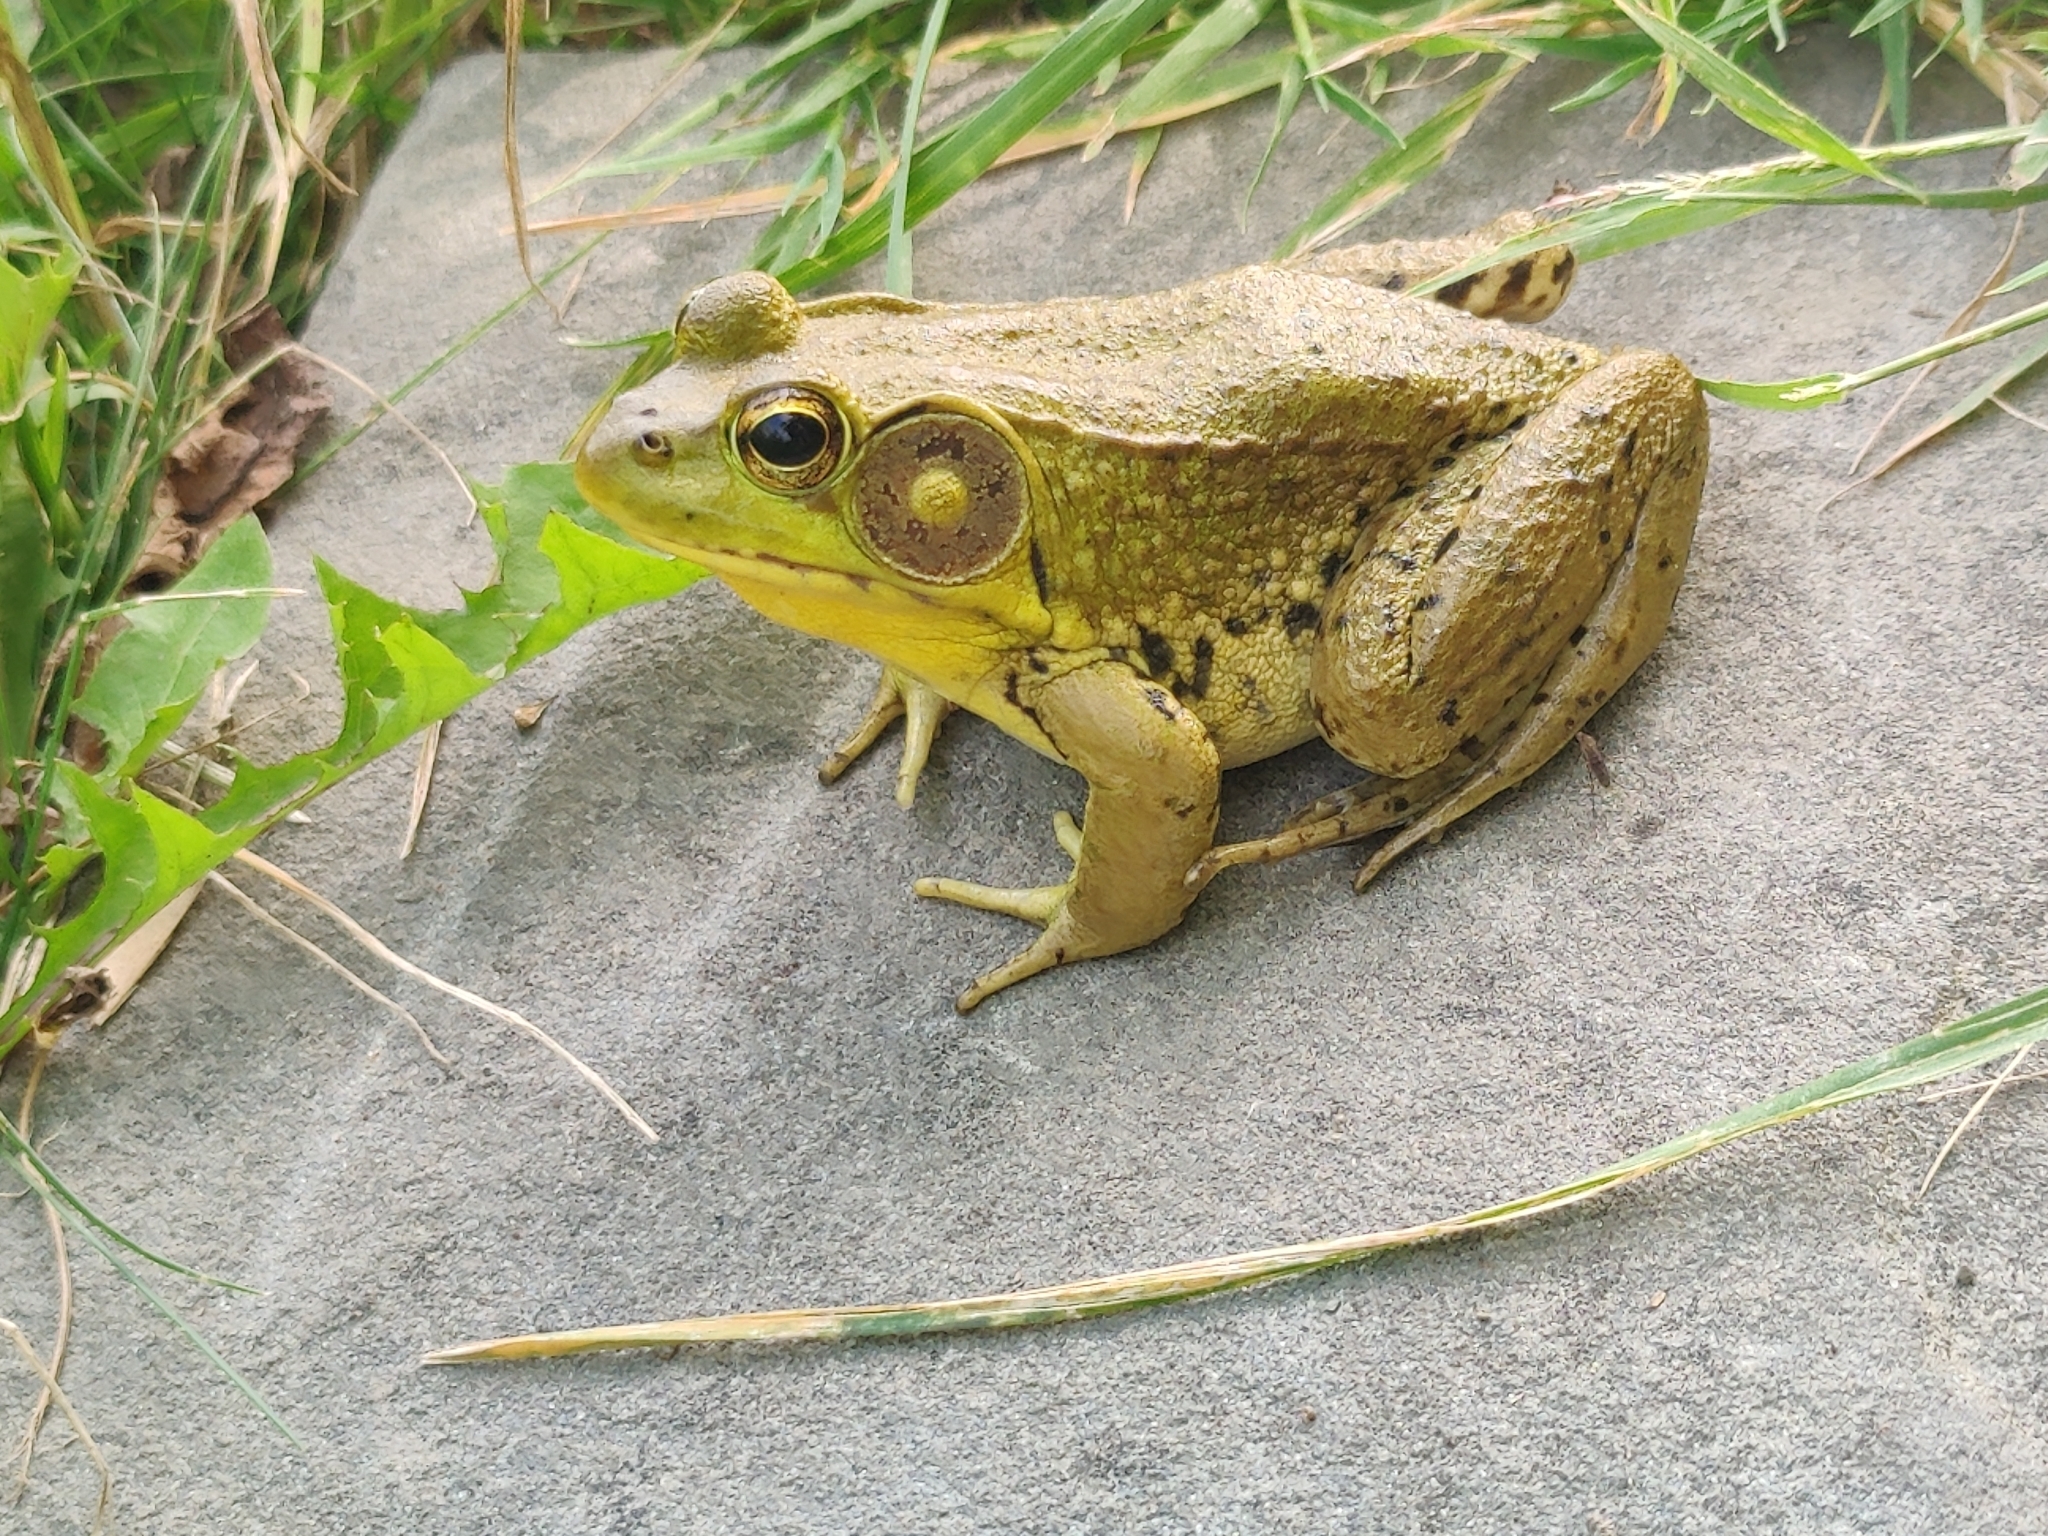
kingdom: Animalia
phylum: Chordata
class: Amphibia
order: Anura
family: Ranidae
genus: Lithobates
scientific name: Lithobates clamitans
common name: Green frog
